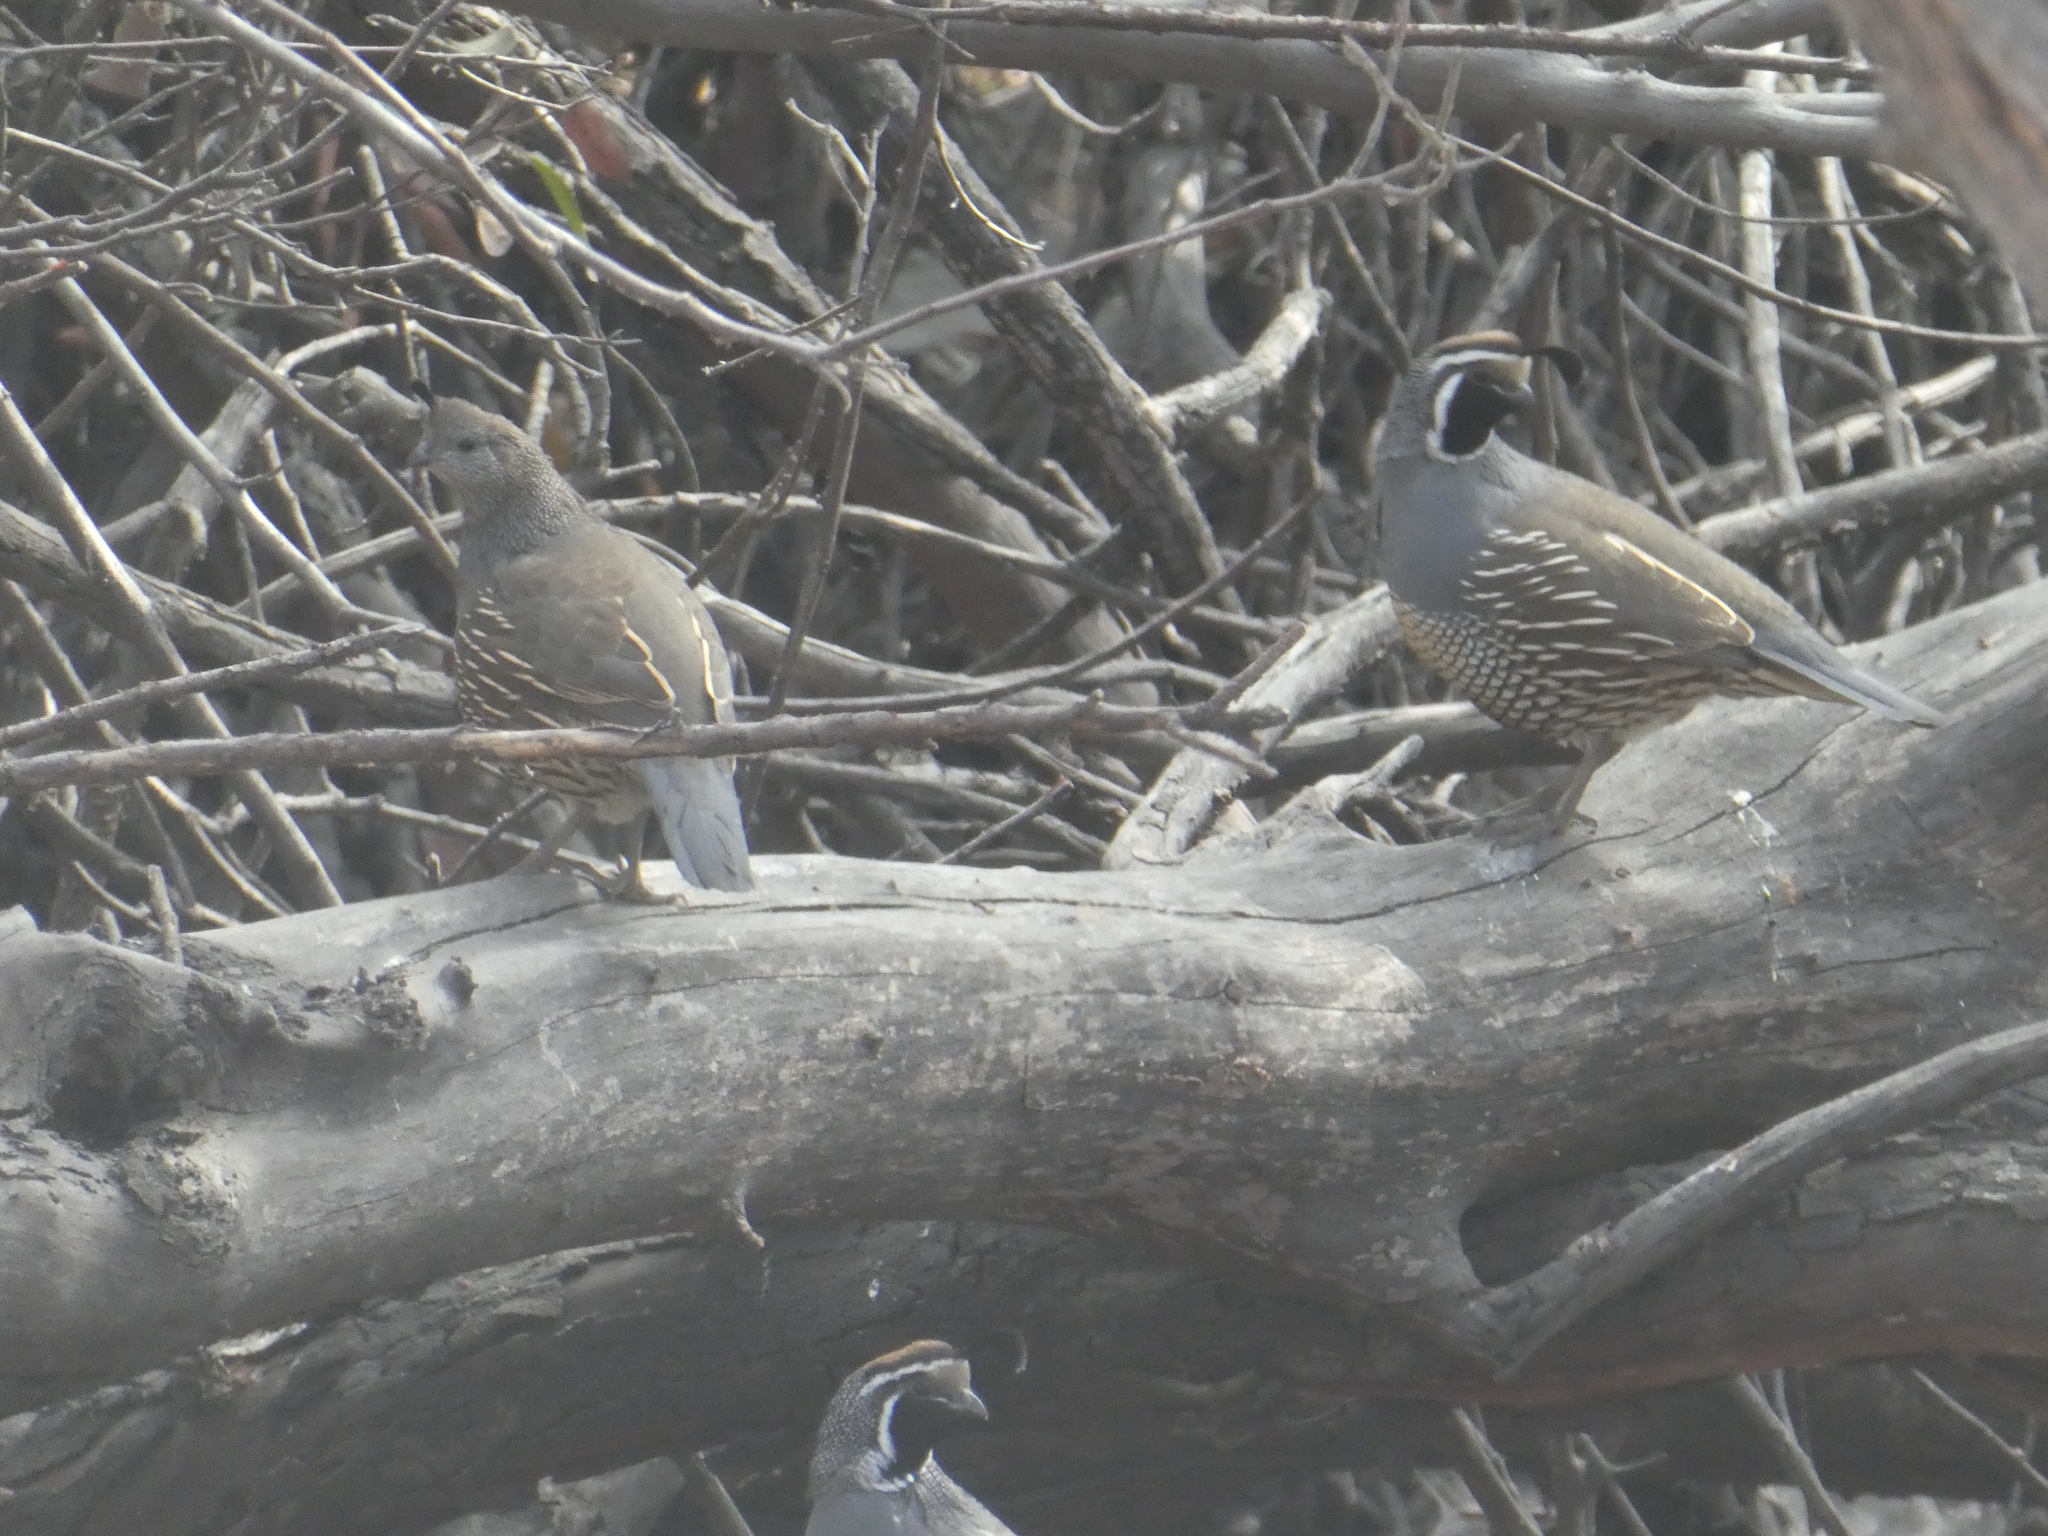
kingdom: Animalia
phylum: Chordata
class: Aves
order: Galliformes
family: Odontophoridae
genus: Callipepla
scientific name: Callipepla californica
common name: California quail
